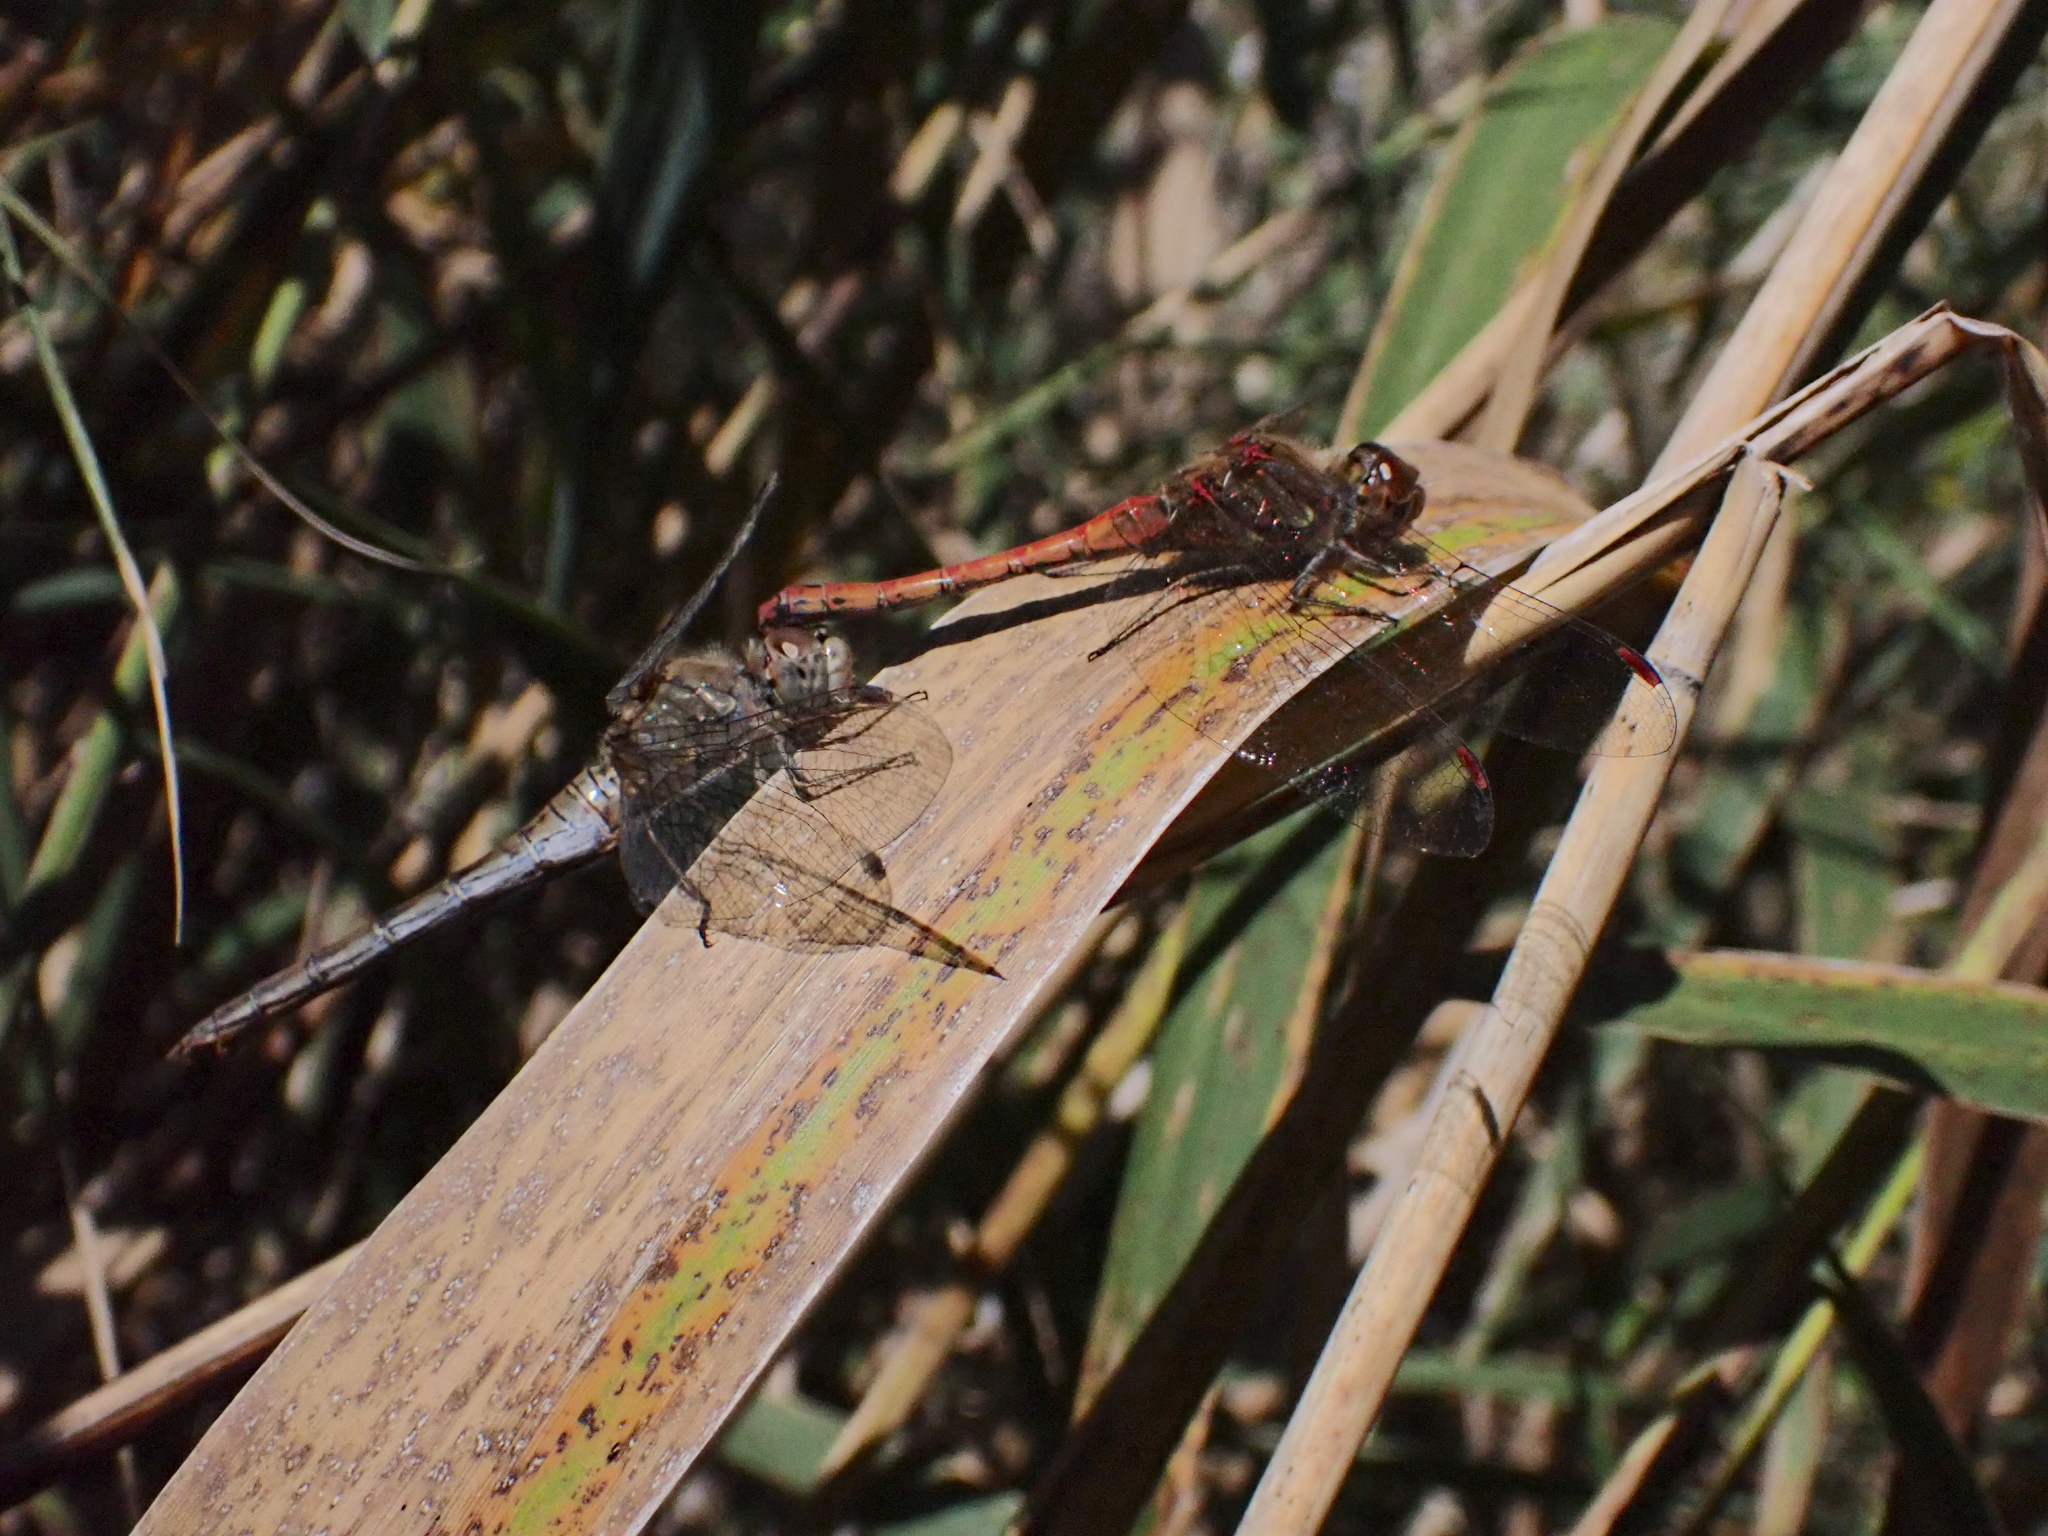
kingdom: Animalia
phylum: Arthropoda
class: Insecta
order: Odonata
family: Libellulidae
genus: Sympetrum
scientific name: Sympetrum striolatum
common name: Common darter
